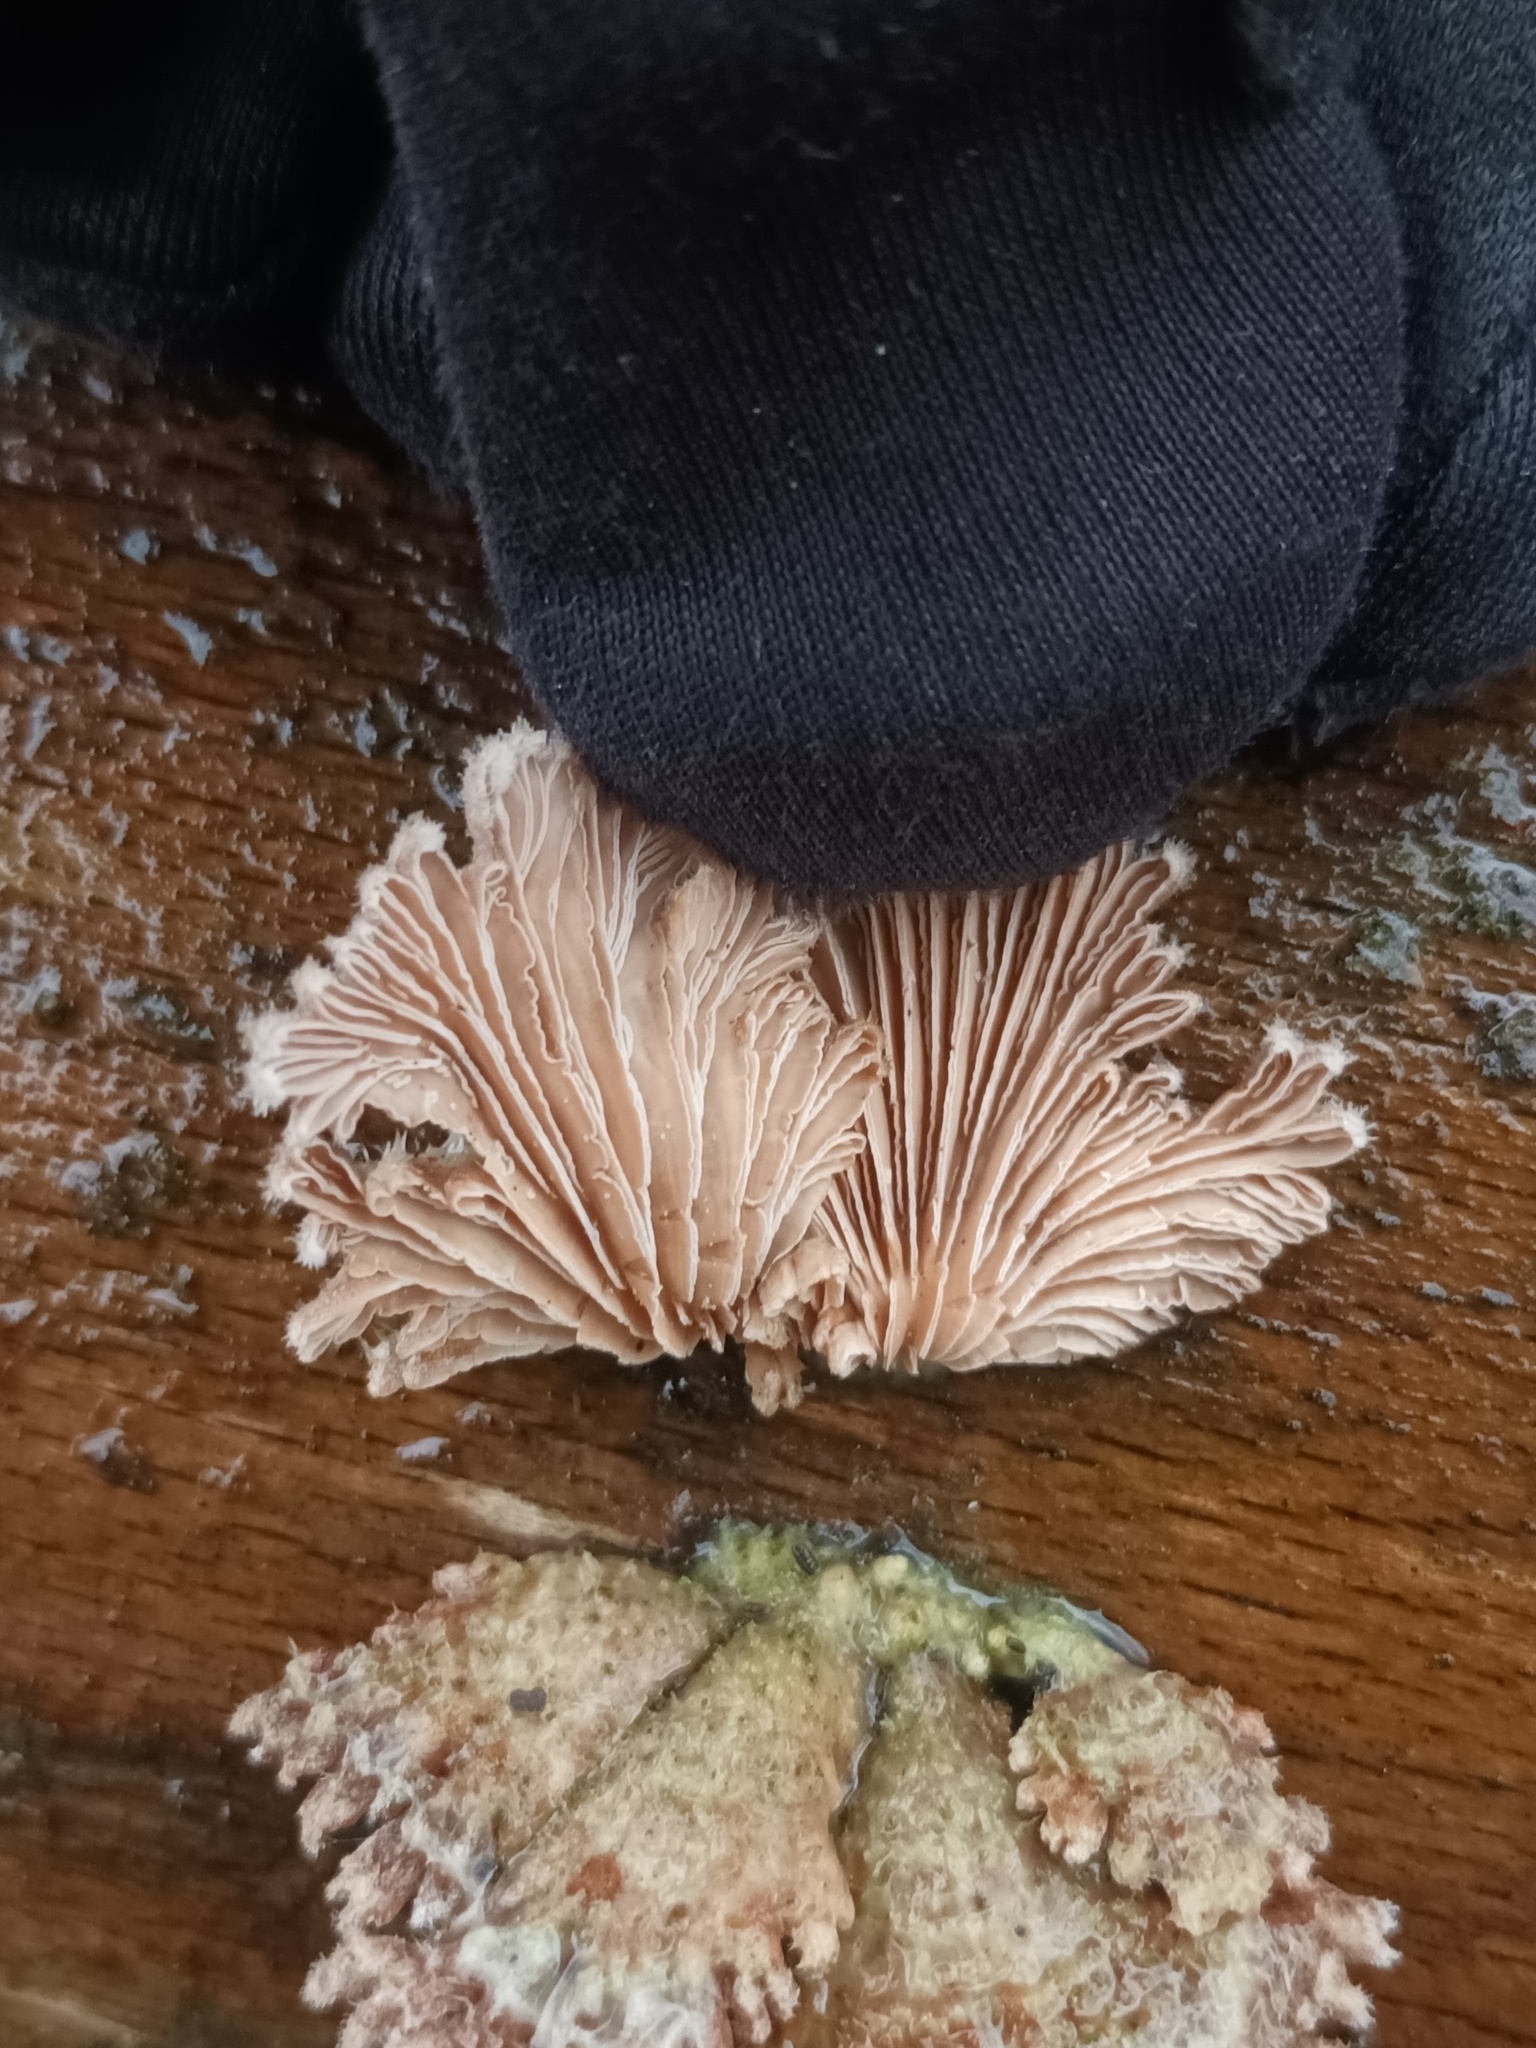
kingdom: Fungi
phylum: Basidiomycota
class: Agaricomycetes
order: Agaricales
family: Schizophyllaceae
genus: Schizophyllum
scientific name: Schizophyllum commune
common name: Common porecrust
